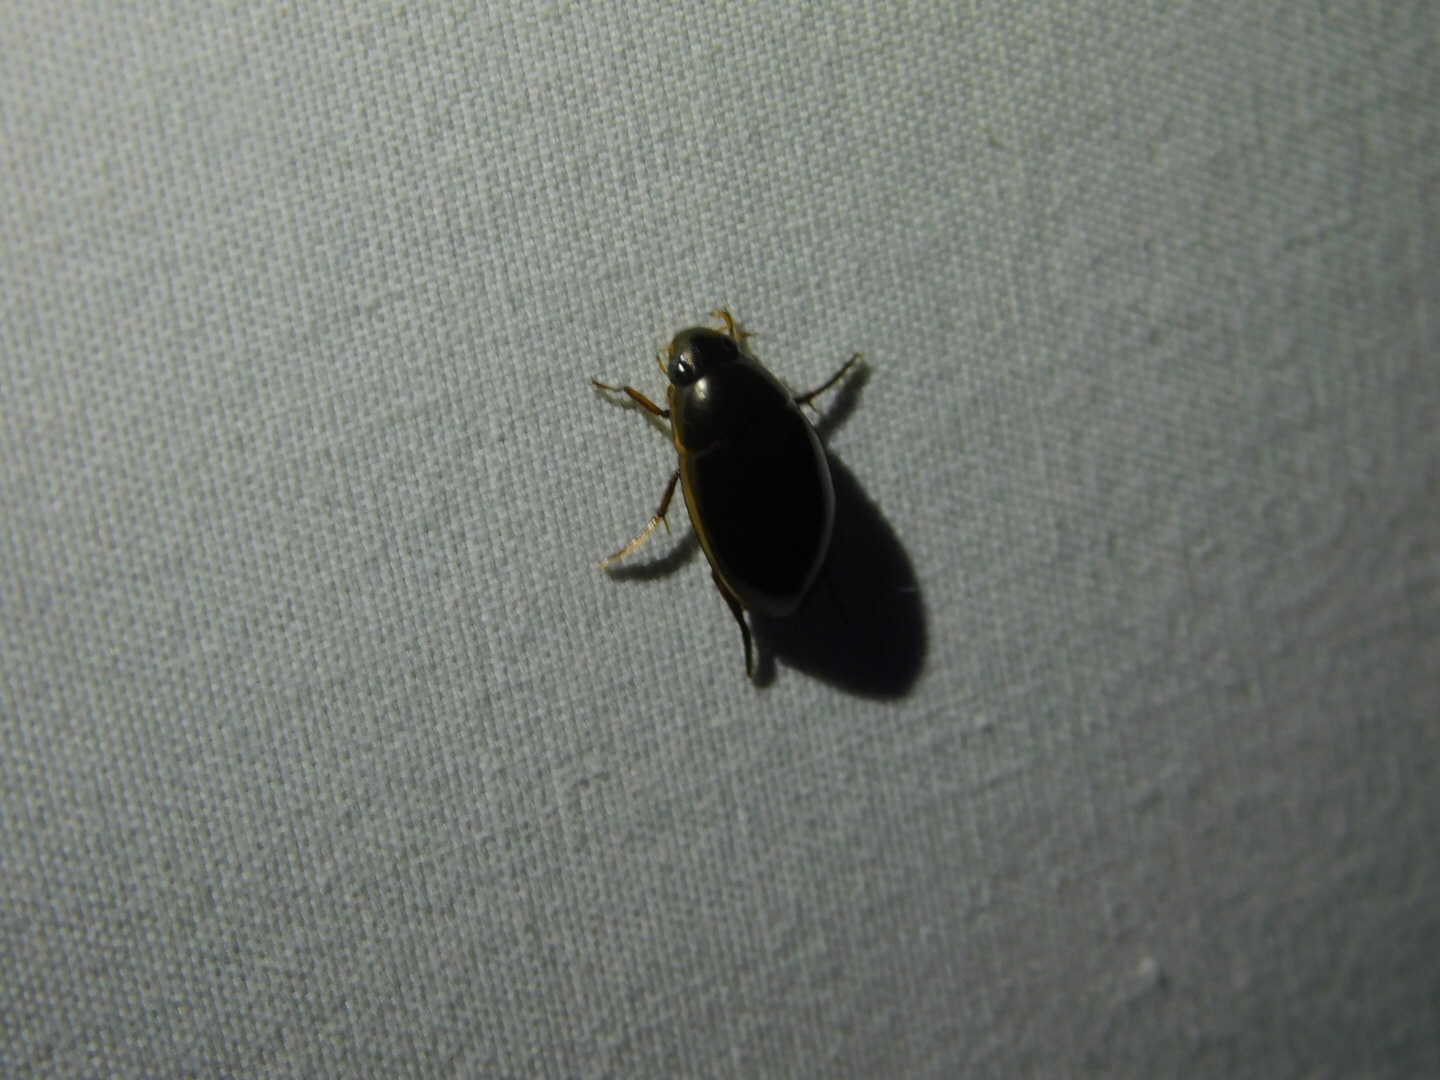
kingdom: Animalia
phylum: Arthropoda
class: Insecta
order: Coleoptera
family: Hydrophilidae
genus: Tropisternus
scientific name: Tropisternus lateralis
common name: Lateral-banded water scavenger beetle
